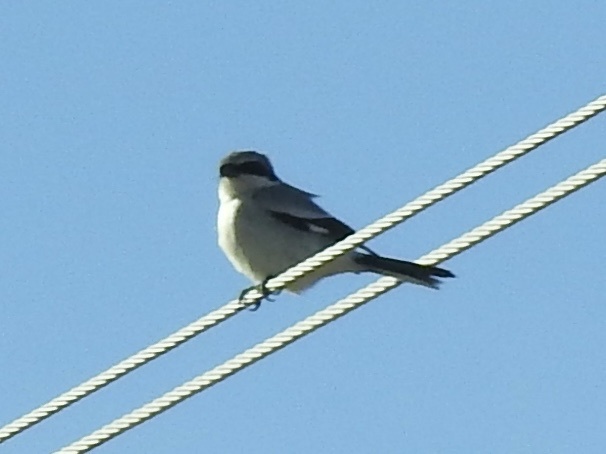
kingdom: Animalia
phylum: Chordata
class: Aves
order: Passeriformes
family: Laniidae
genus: Lanius
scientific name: Lanius ludovicianus
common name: Loggerhead shrike
